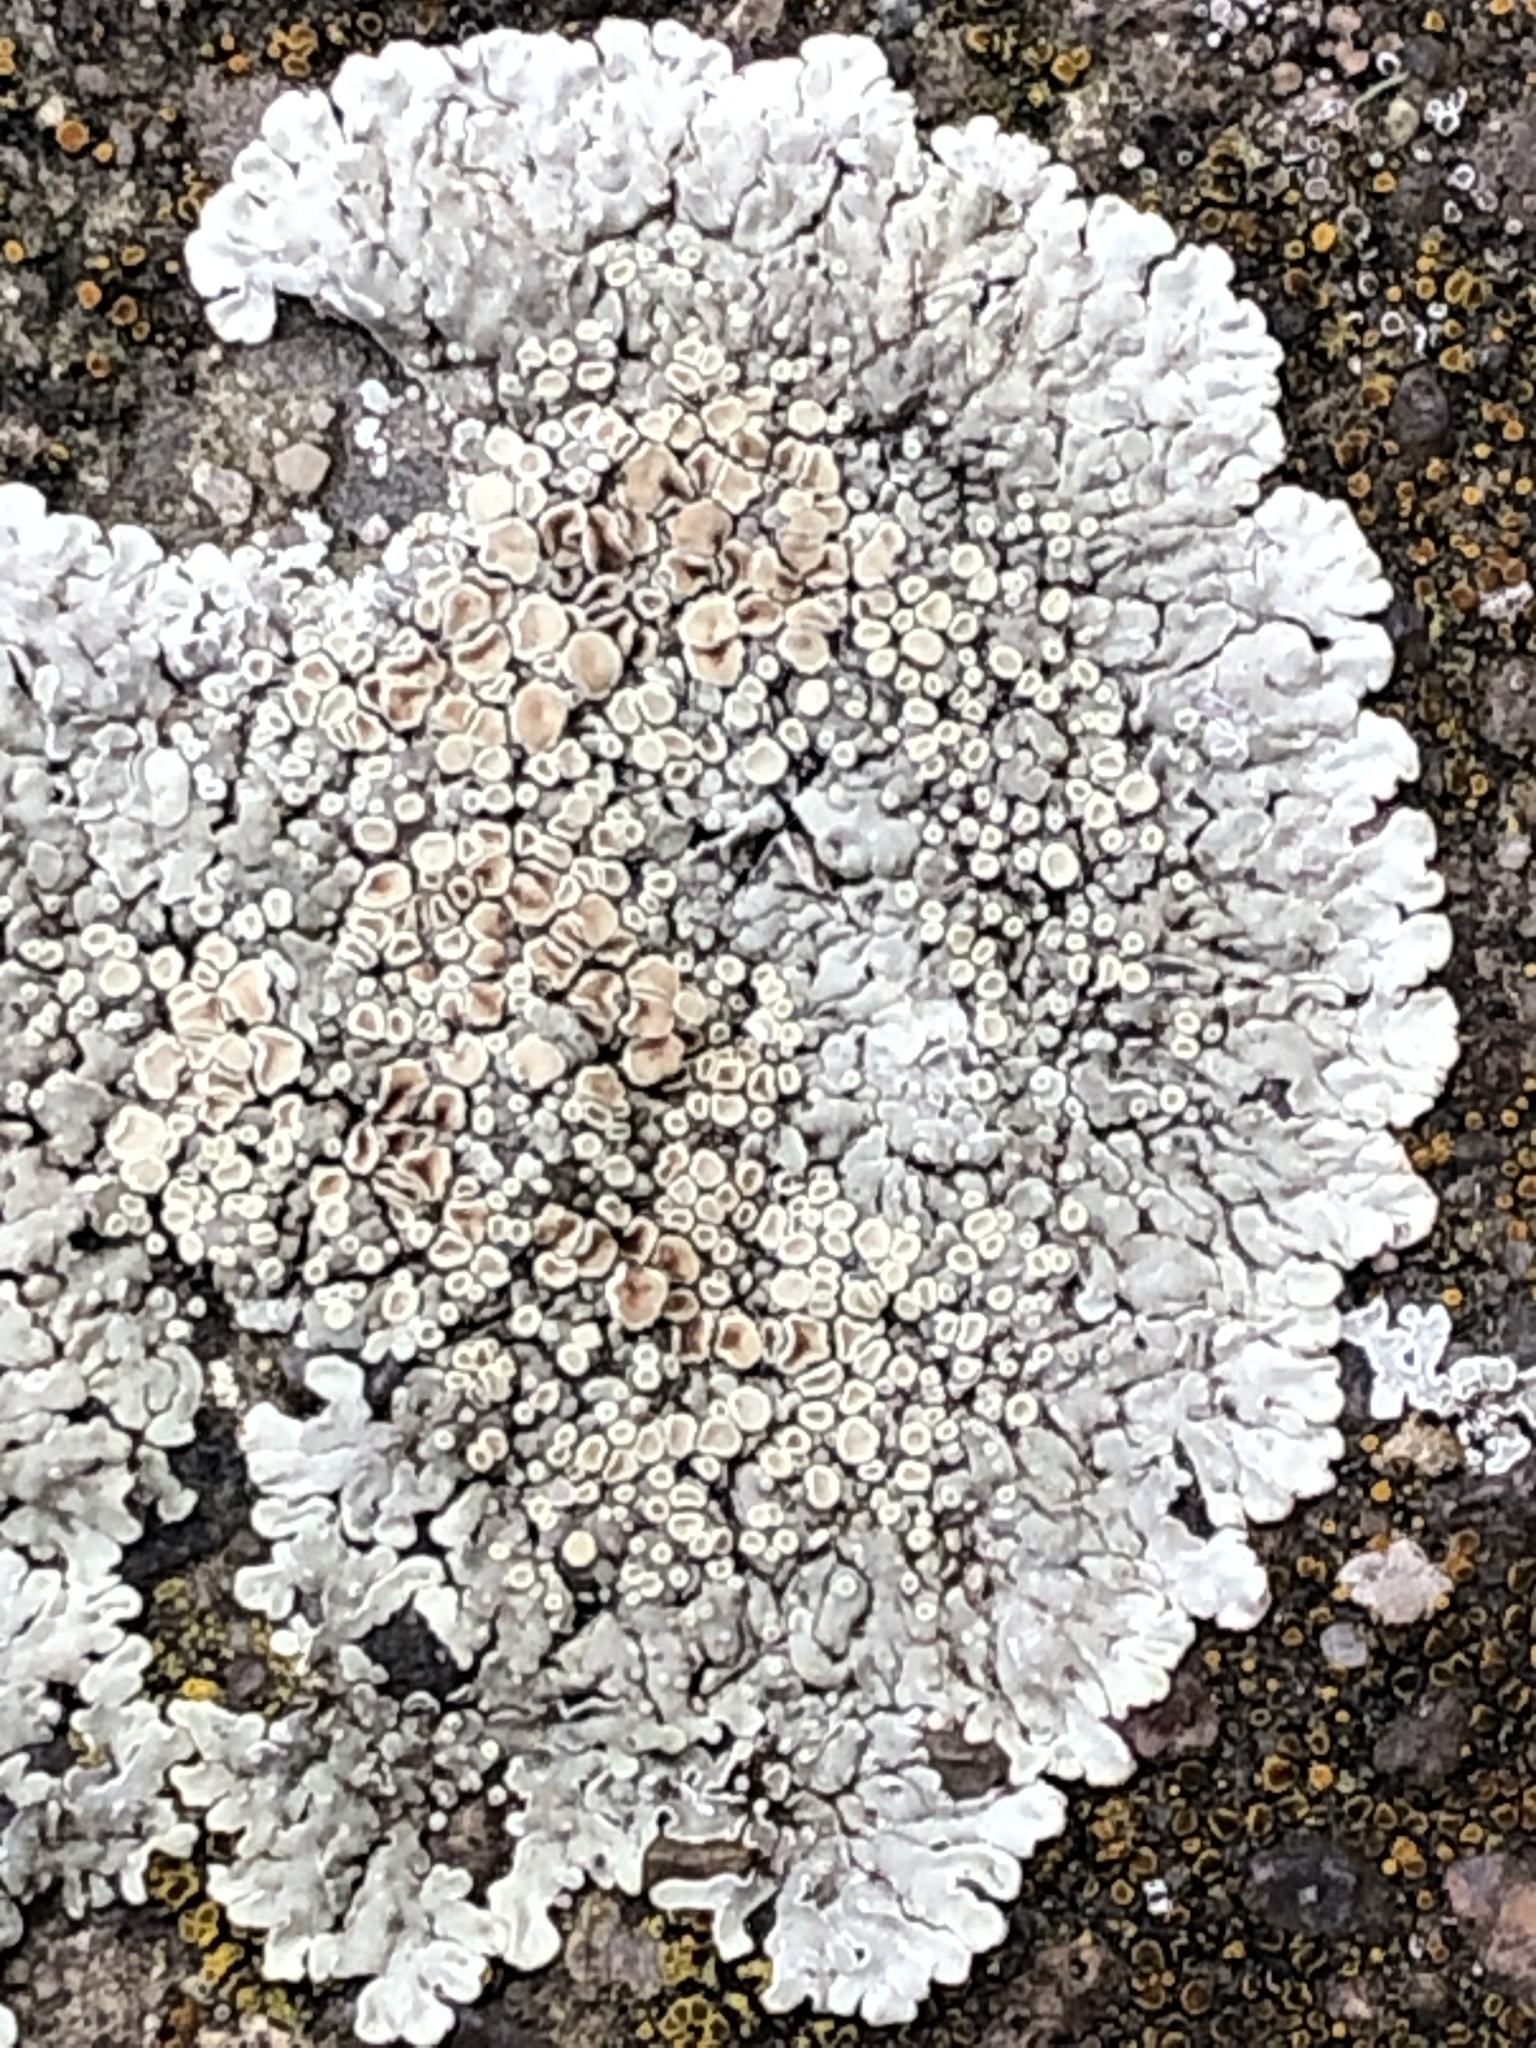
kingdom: Fungi
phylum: Ascomycota
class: Lecanoromycetes
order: Lecanorales
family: Lecanoraceae
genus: Protoparmeliopsis
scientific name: Protoparmeliopsis muralis
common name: Stonewall rim lichen
